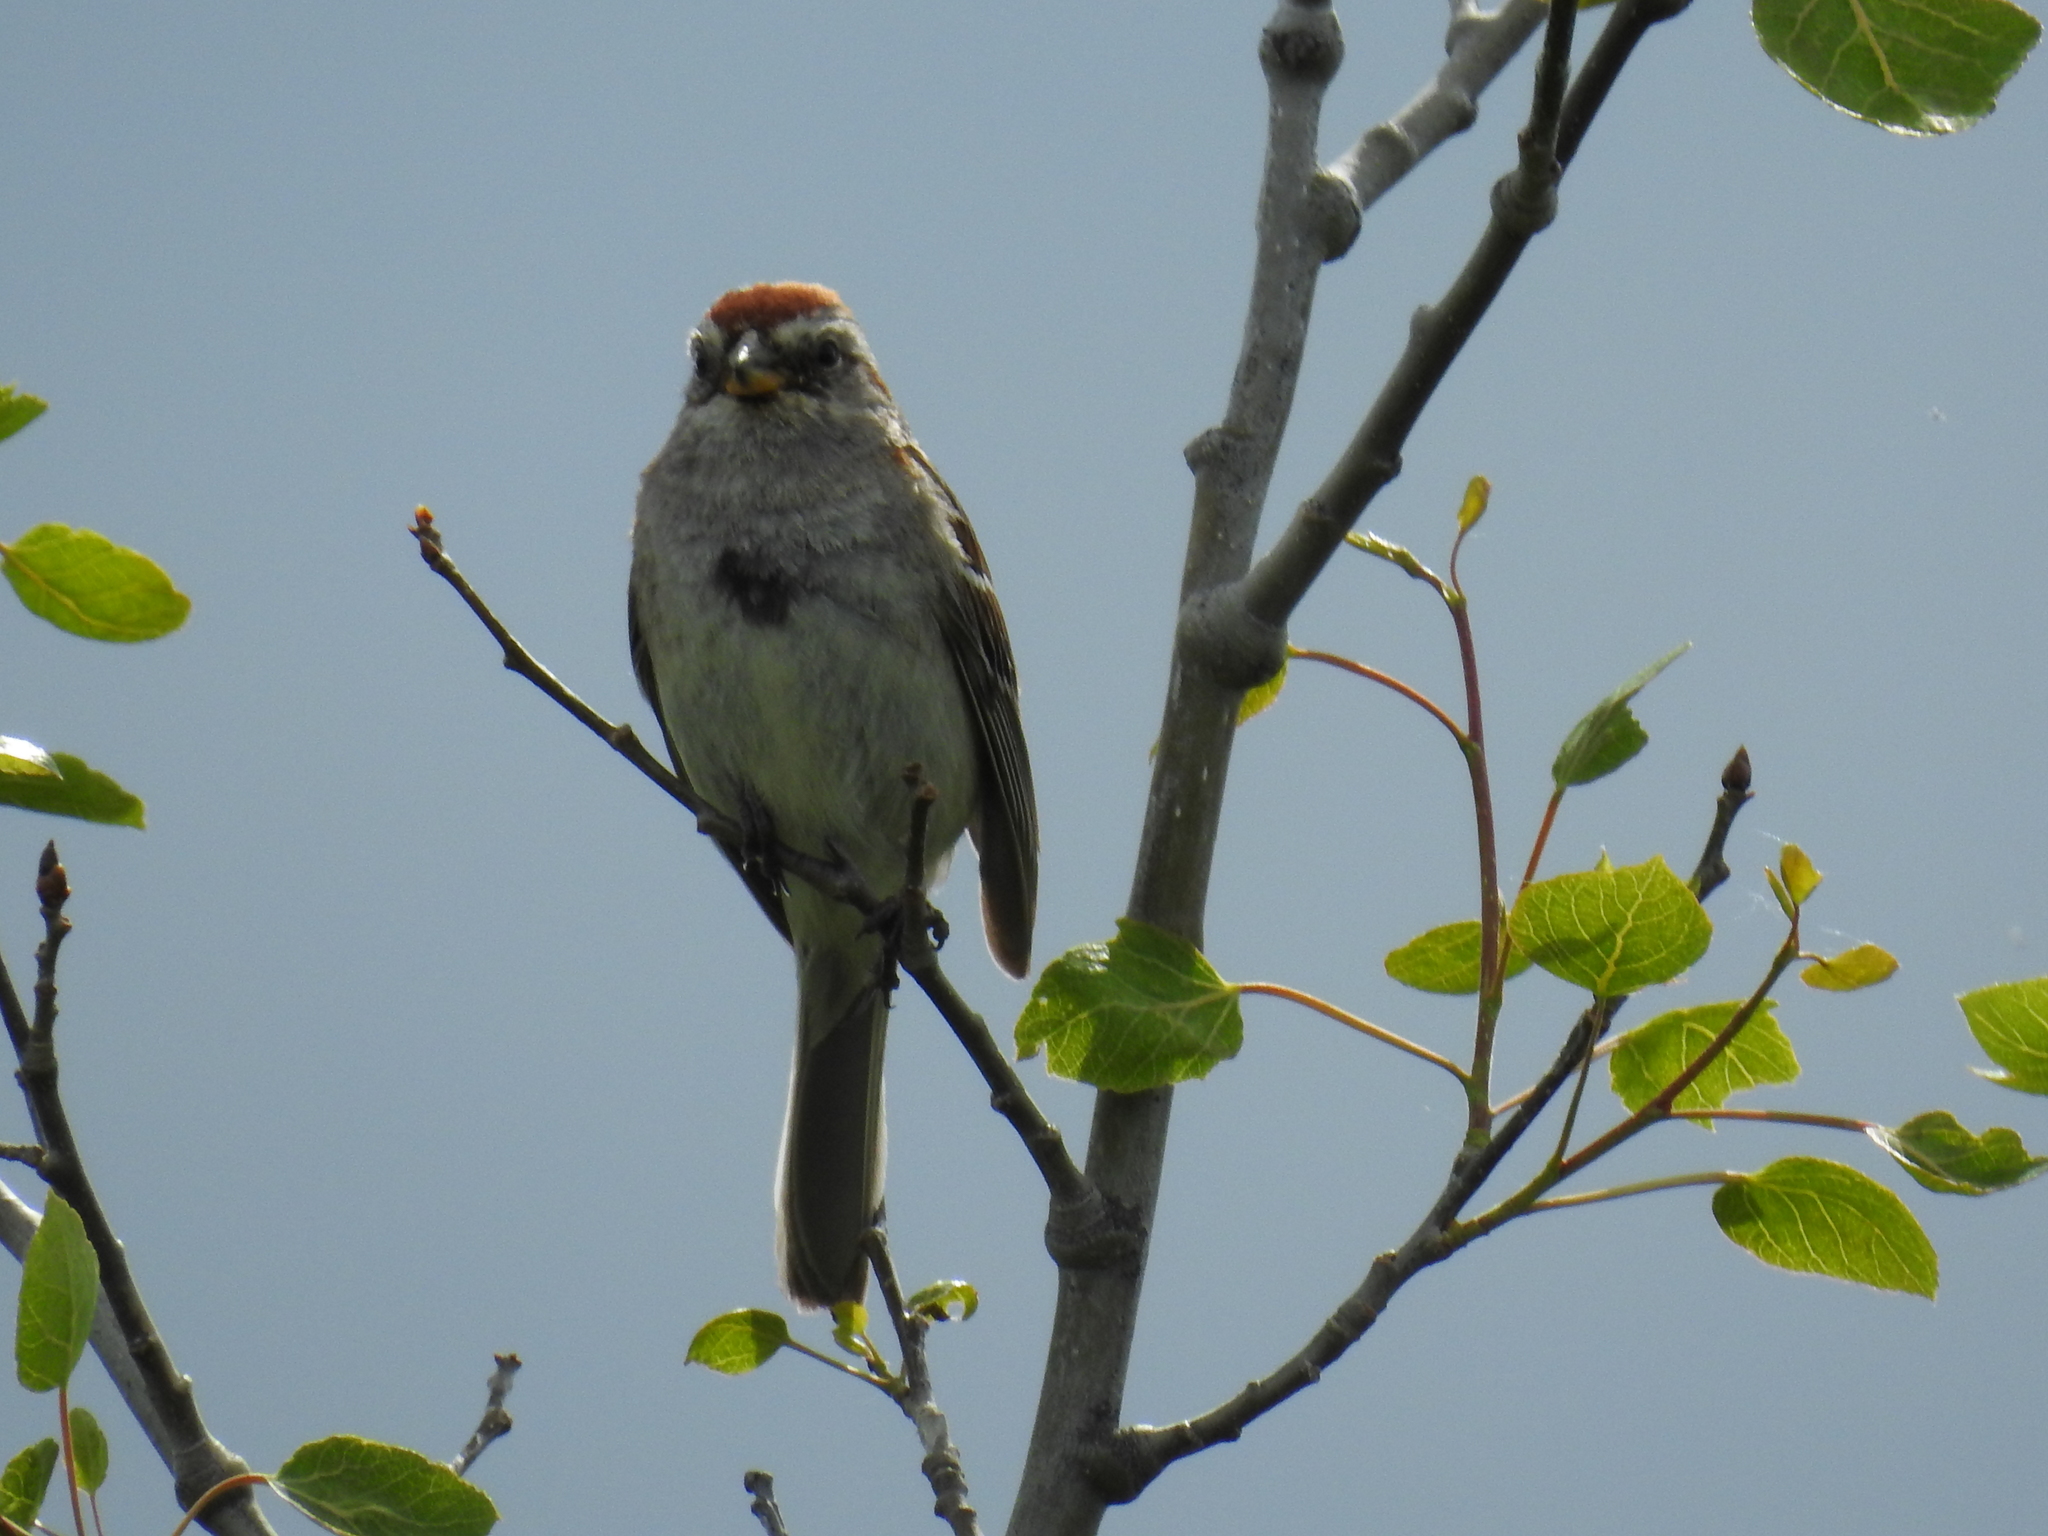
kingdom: Animalia
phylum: Chordata
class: Aves
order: Passeriformes
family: Passerellidae
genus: Spizelloides
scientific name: Spizelloides arborea
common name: American tree sparrow
